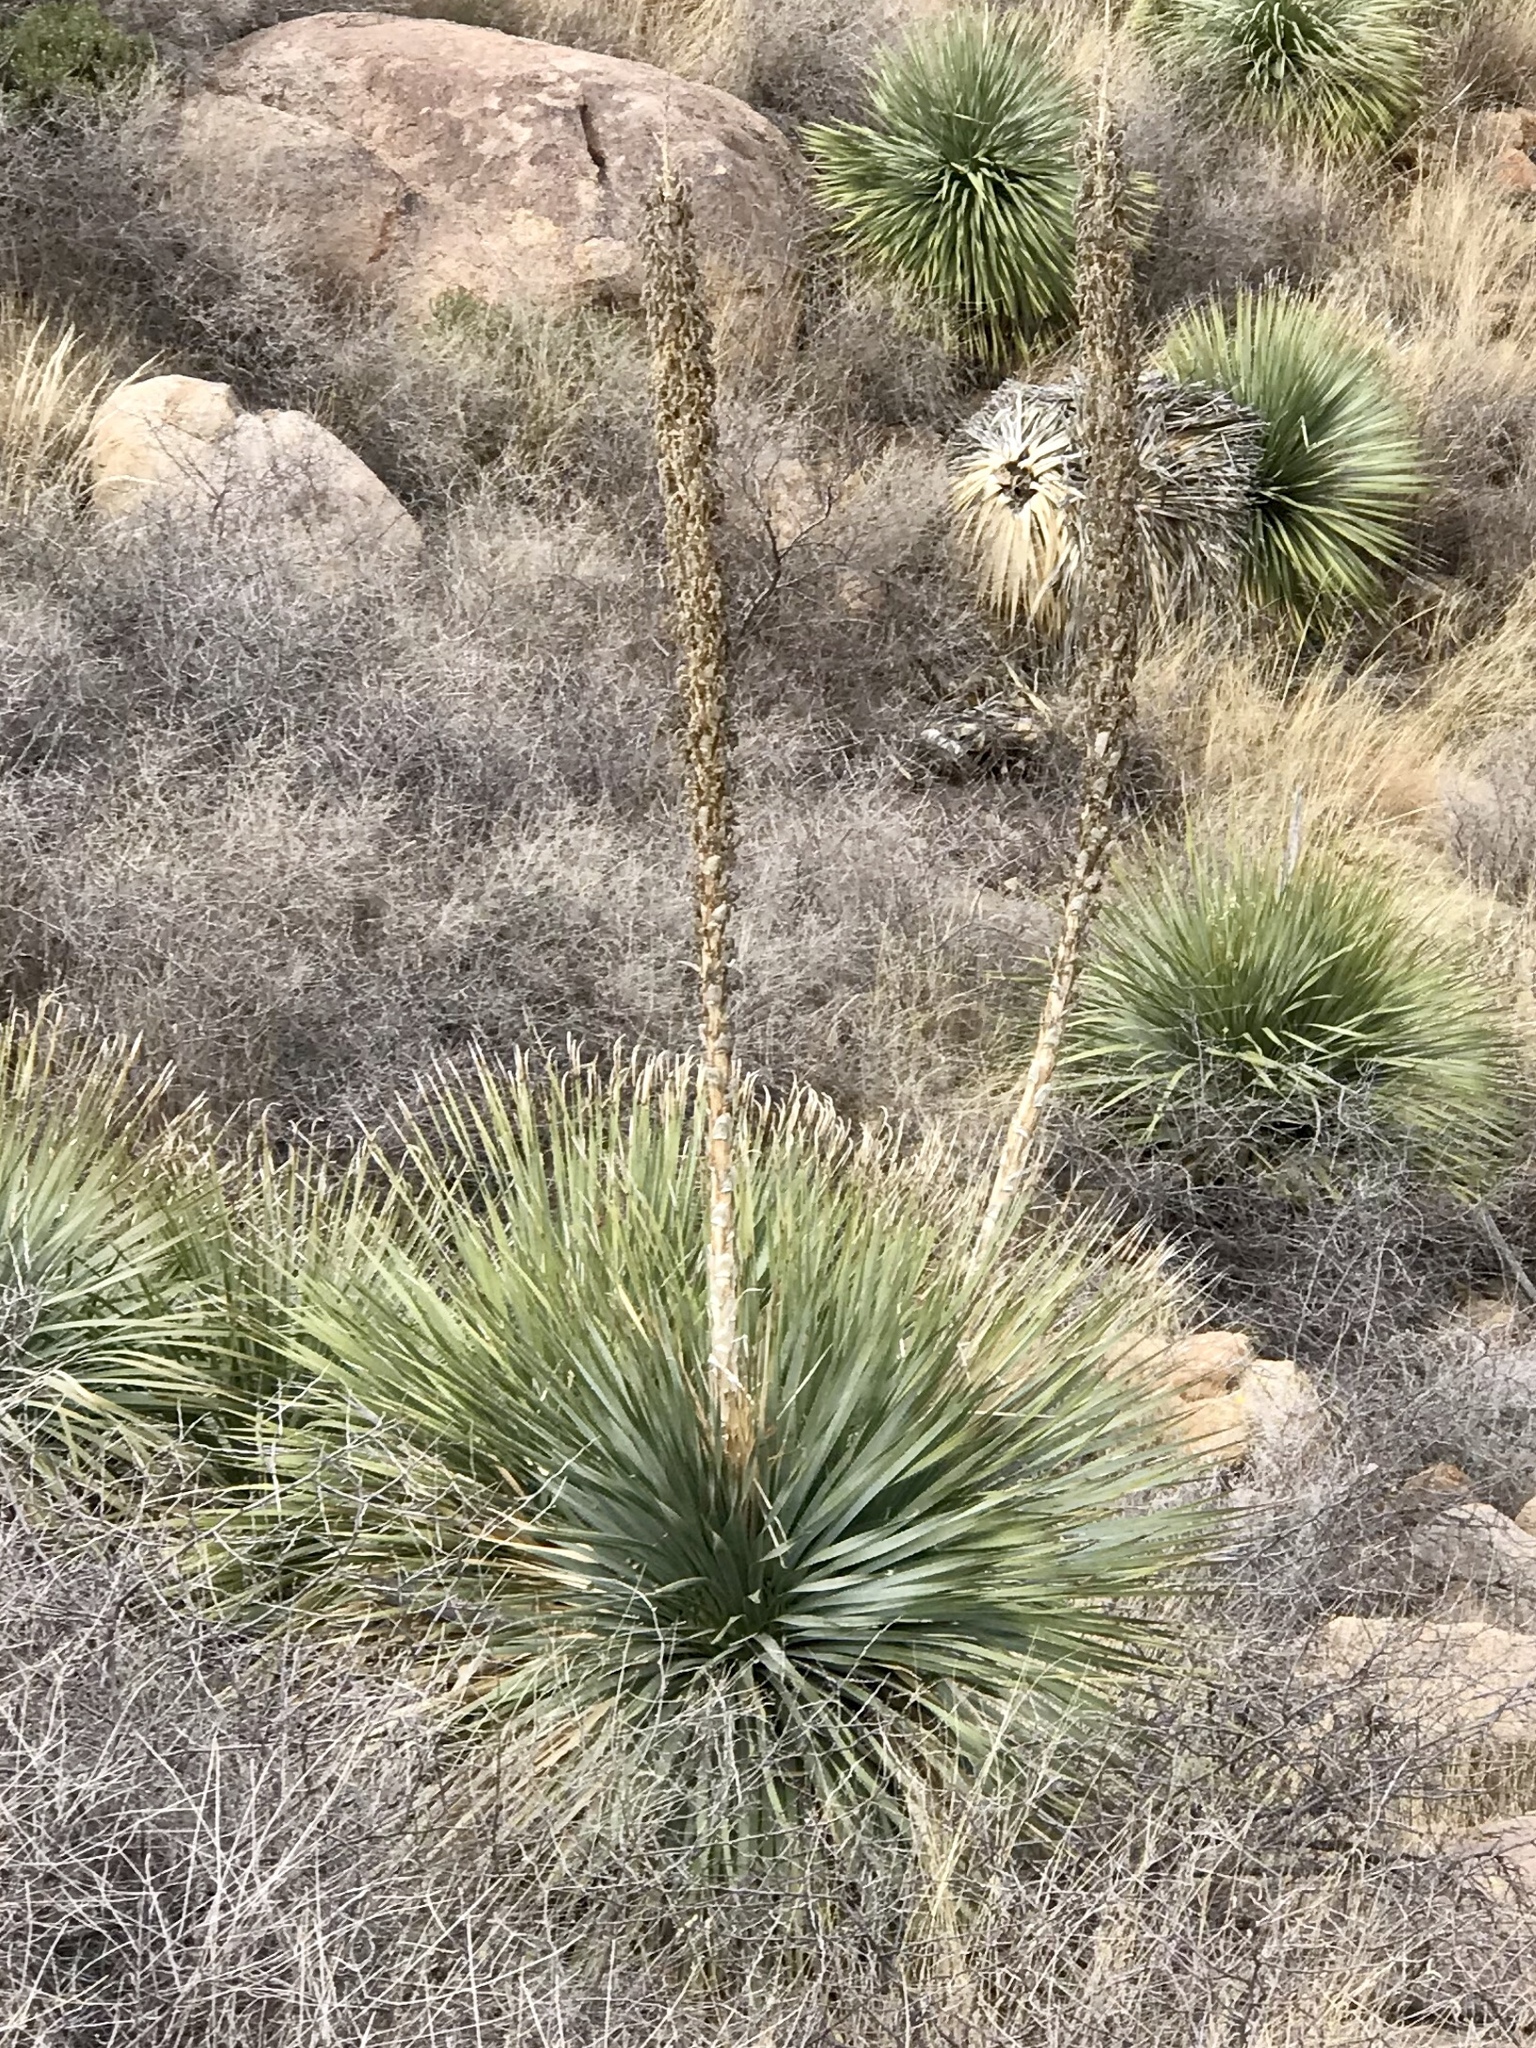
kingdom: Plantae
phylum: Tracheophyta
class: Liliopsida
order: Asparagales
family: Asparagaceae
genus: Dasylirion
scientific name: Dasylirion wheeleri
